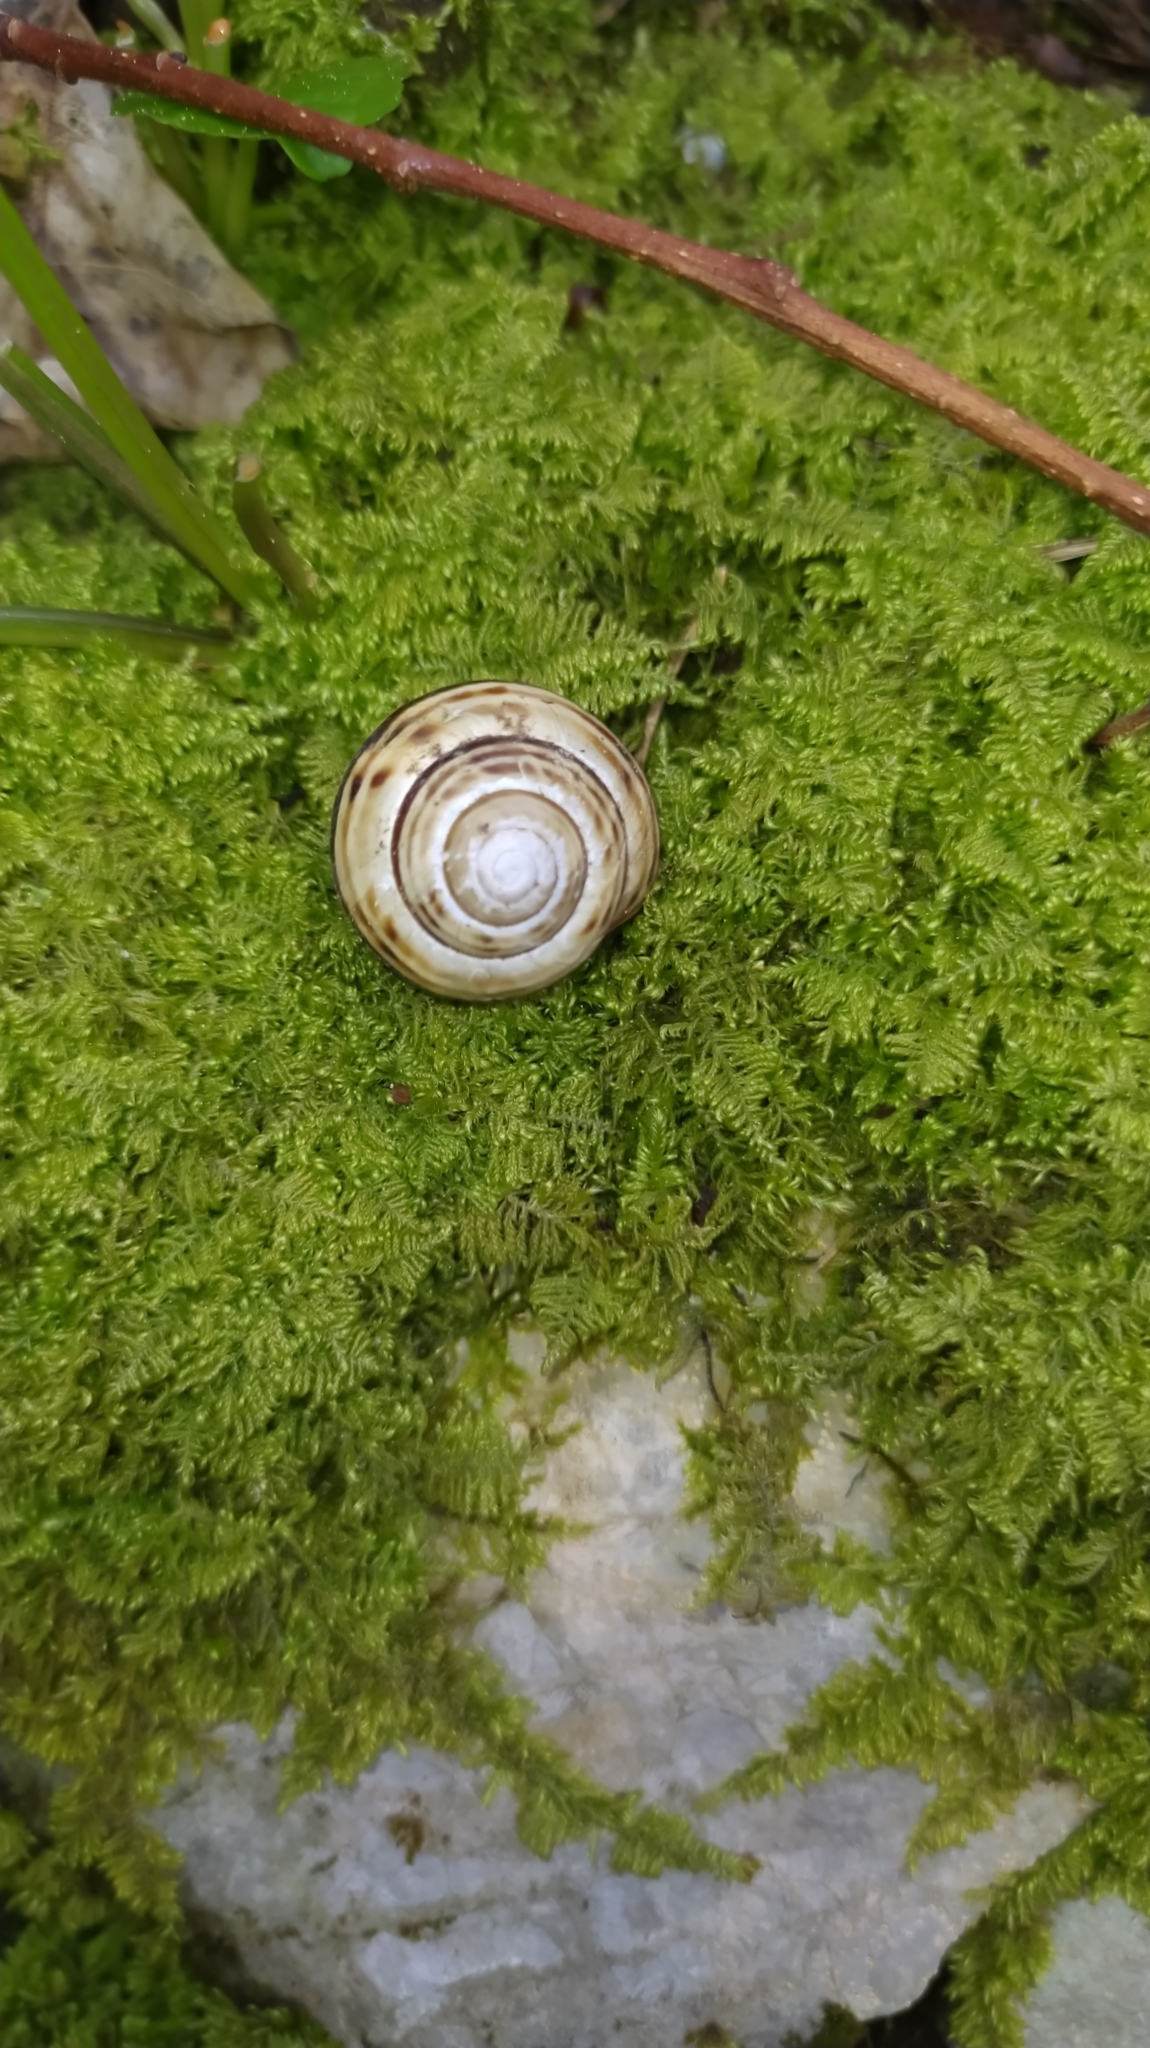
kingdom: Animalia
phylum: Mollusca
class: Gastropoda
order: Stylommatophora
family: Helicidae
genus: Macularia
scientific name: Macularia sylvatica
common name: Hélice sylvatique
